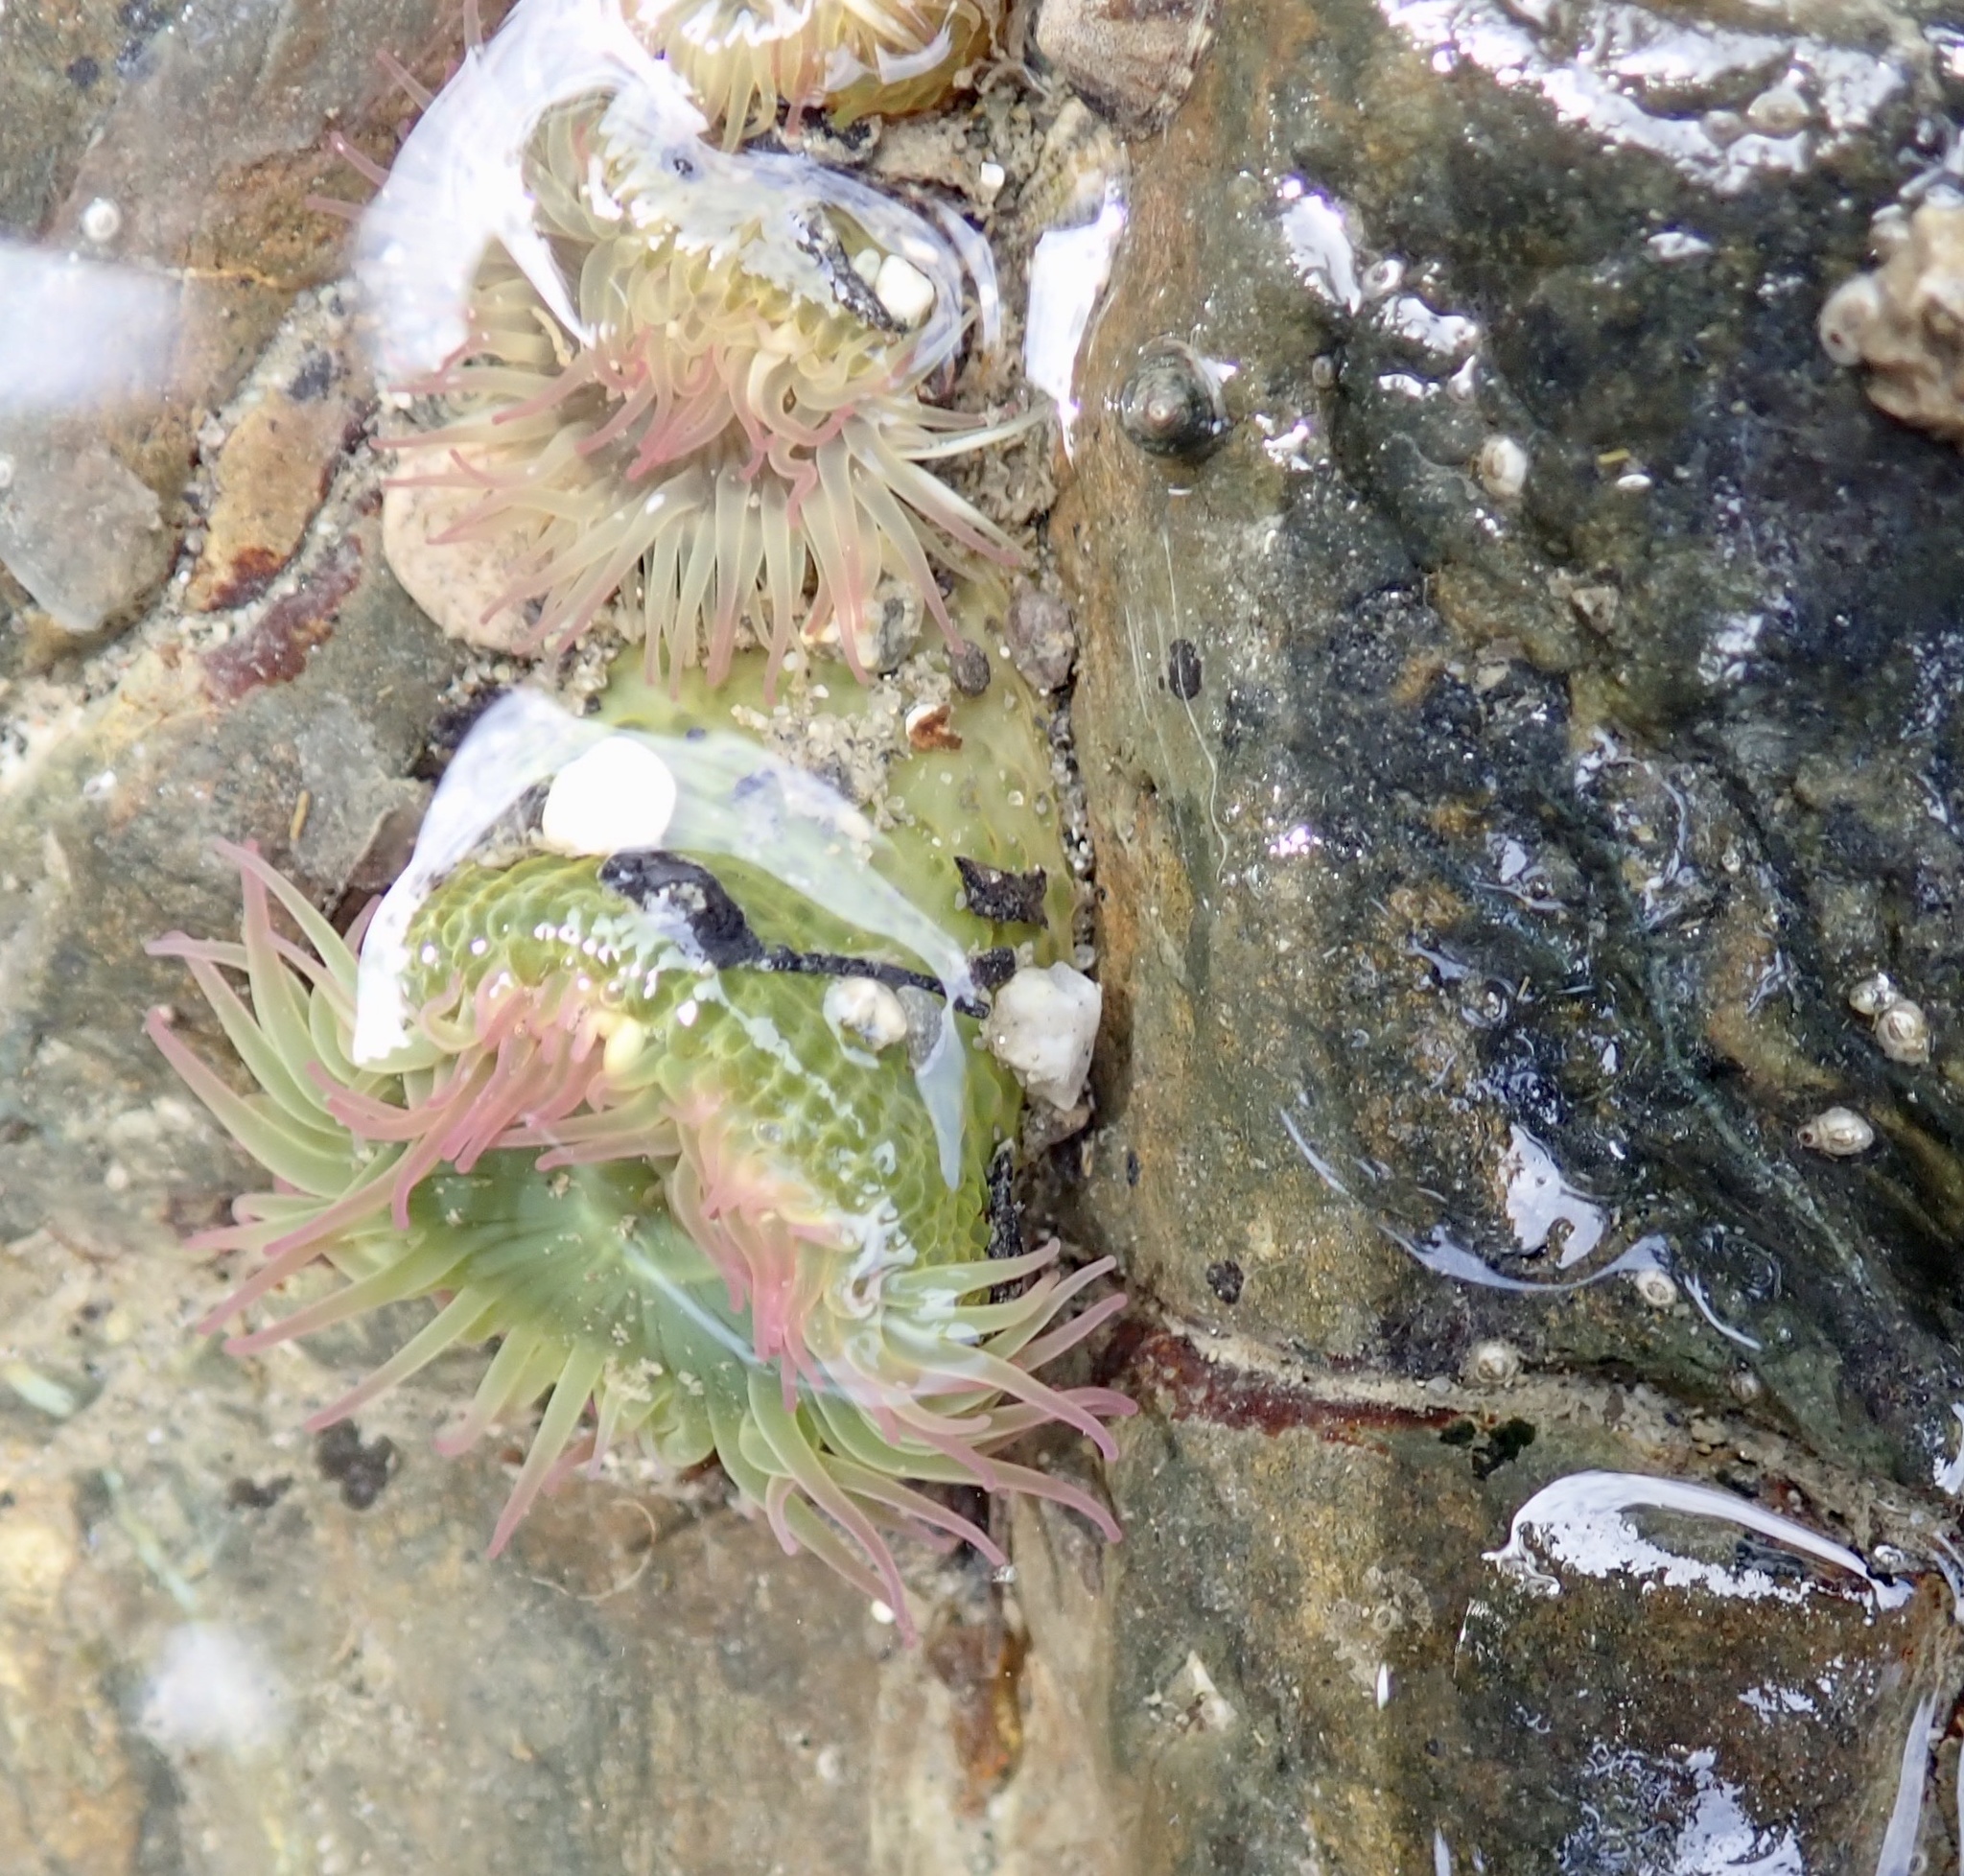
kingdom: Animalia
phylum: Cnidaria
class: Anthozoa
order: Actiniaria
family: Actiniidae
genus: Anthopleura
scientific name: Anthopleura elegantissima
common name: Clonal anemone
